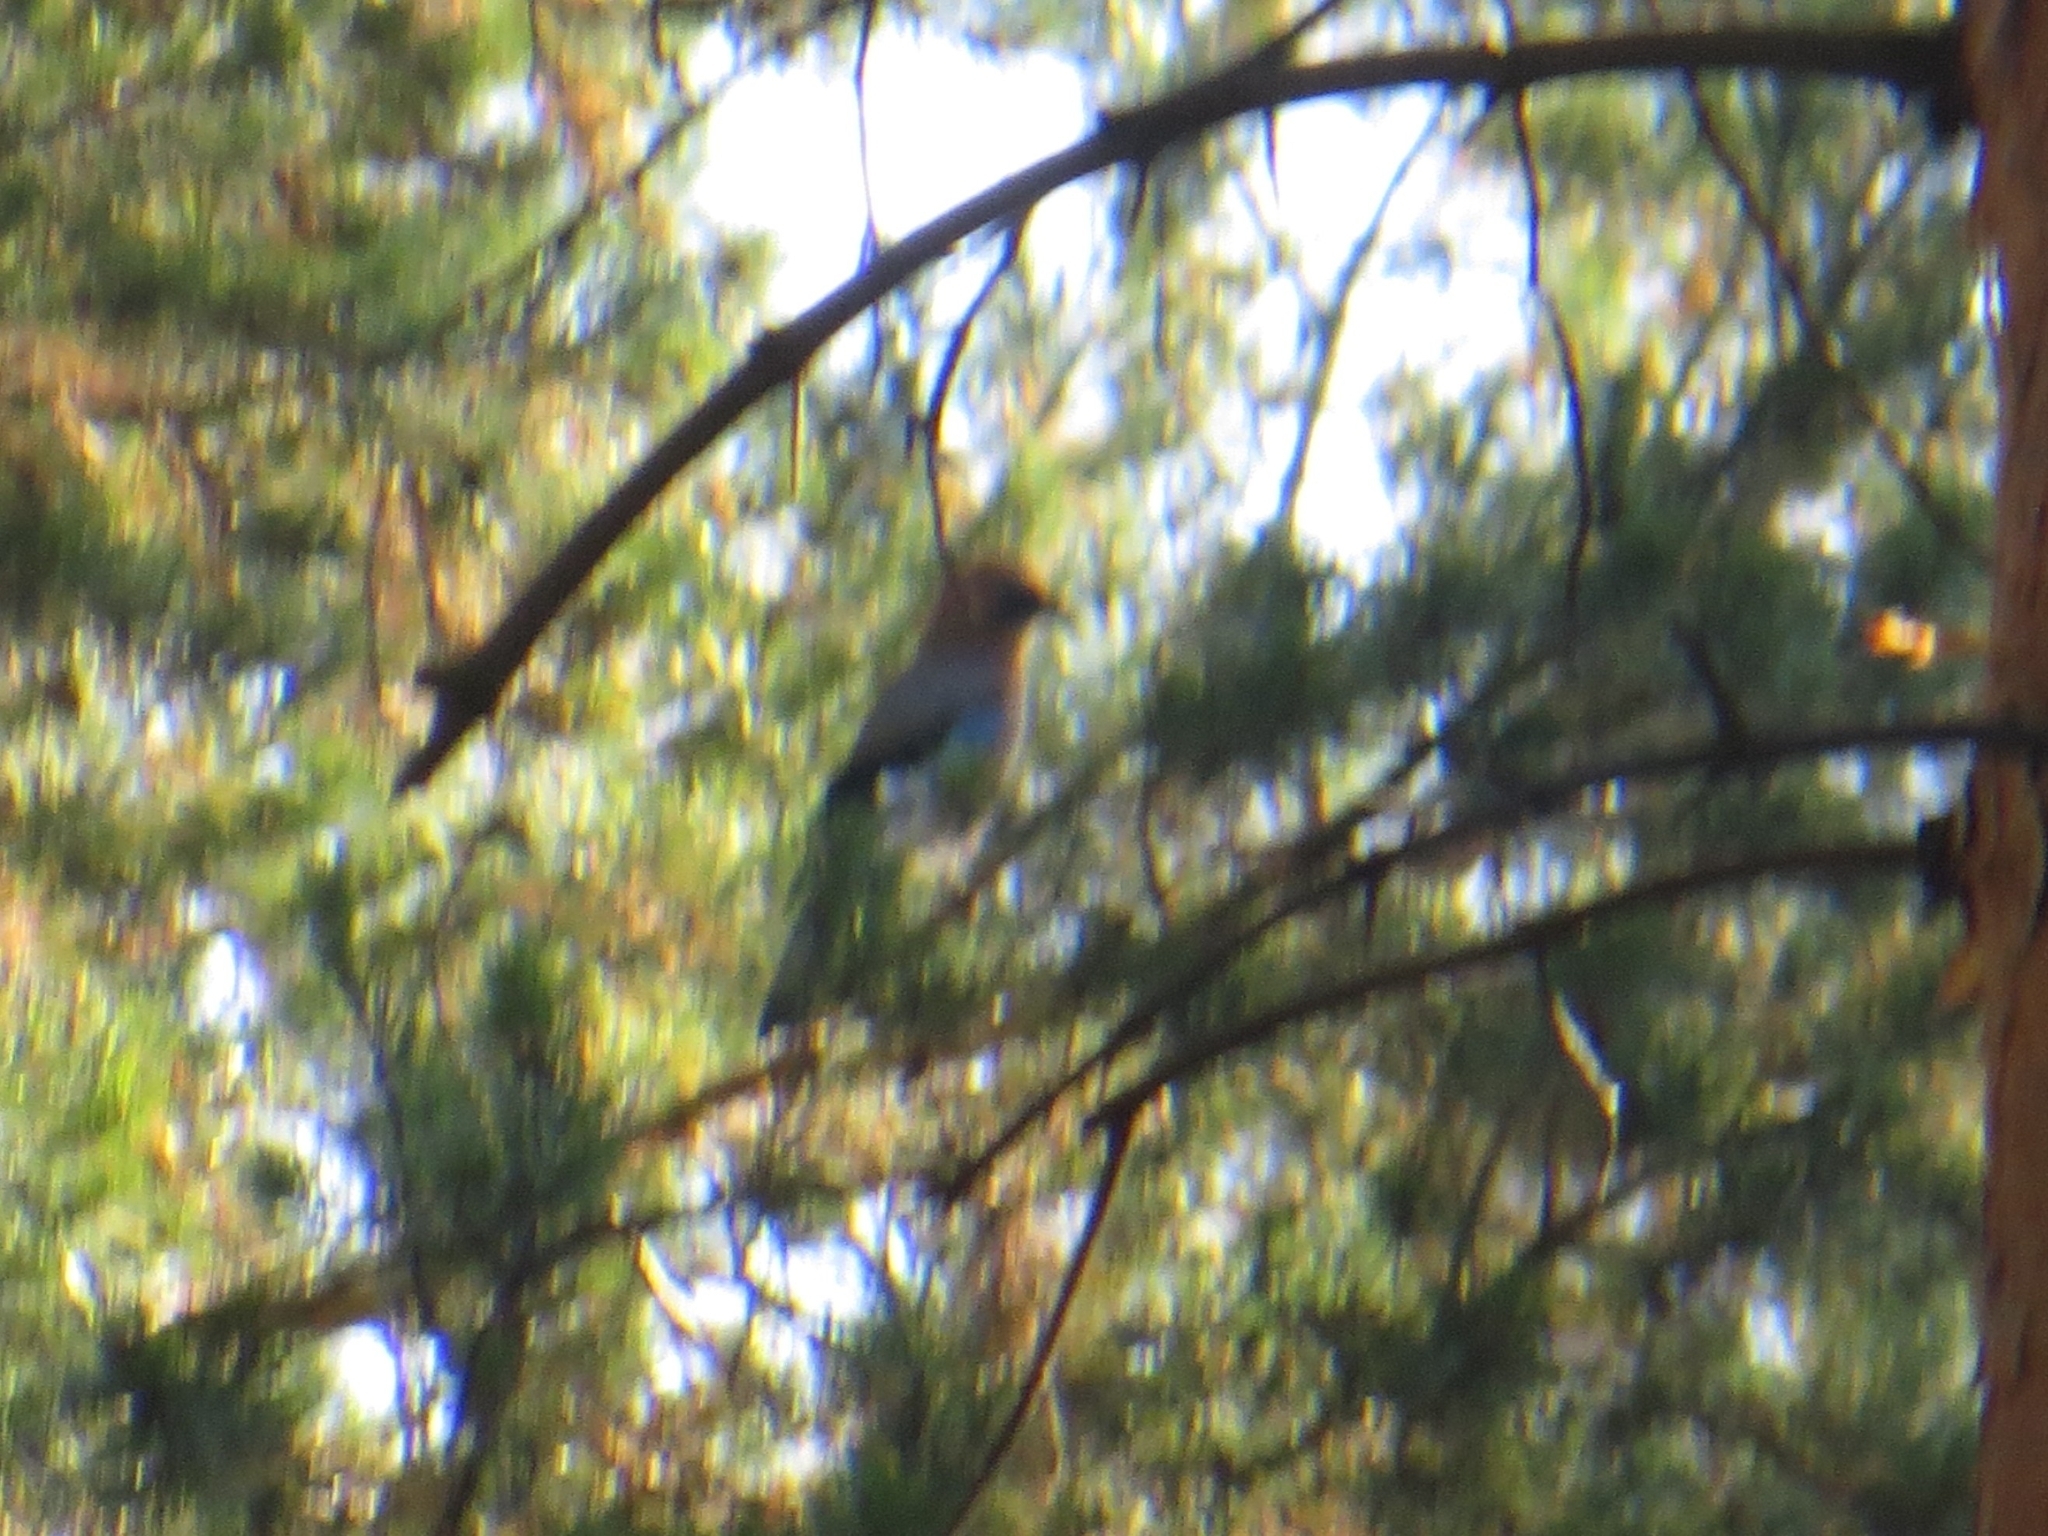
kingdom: Animalia
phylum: Chordata
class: Aves
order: Passeriformes
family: Corvidae
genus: Garrulus
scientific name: Garrulus glandarius
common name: Eurasian jay
